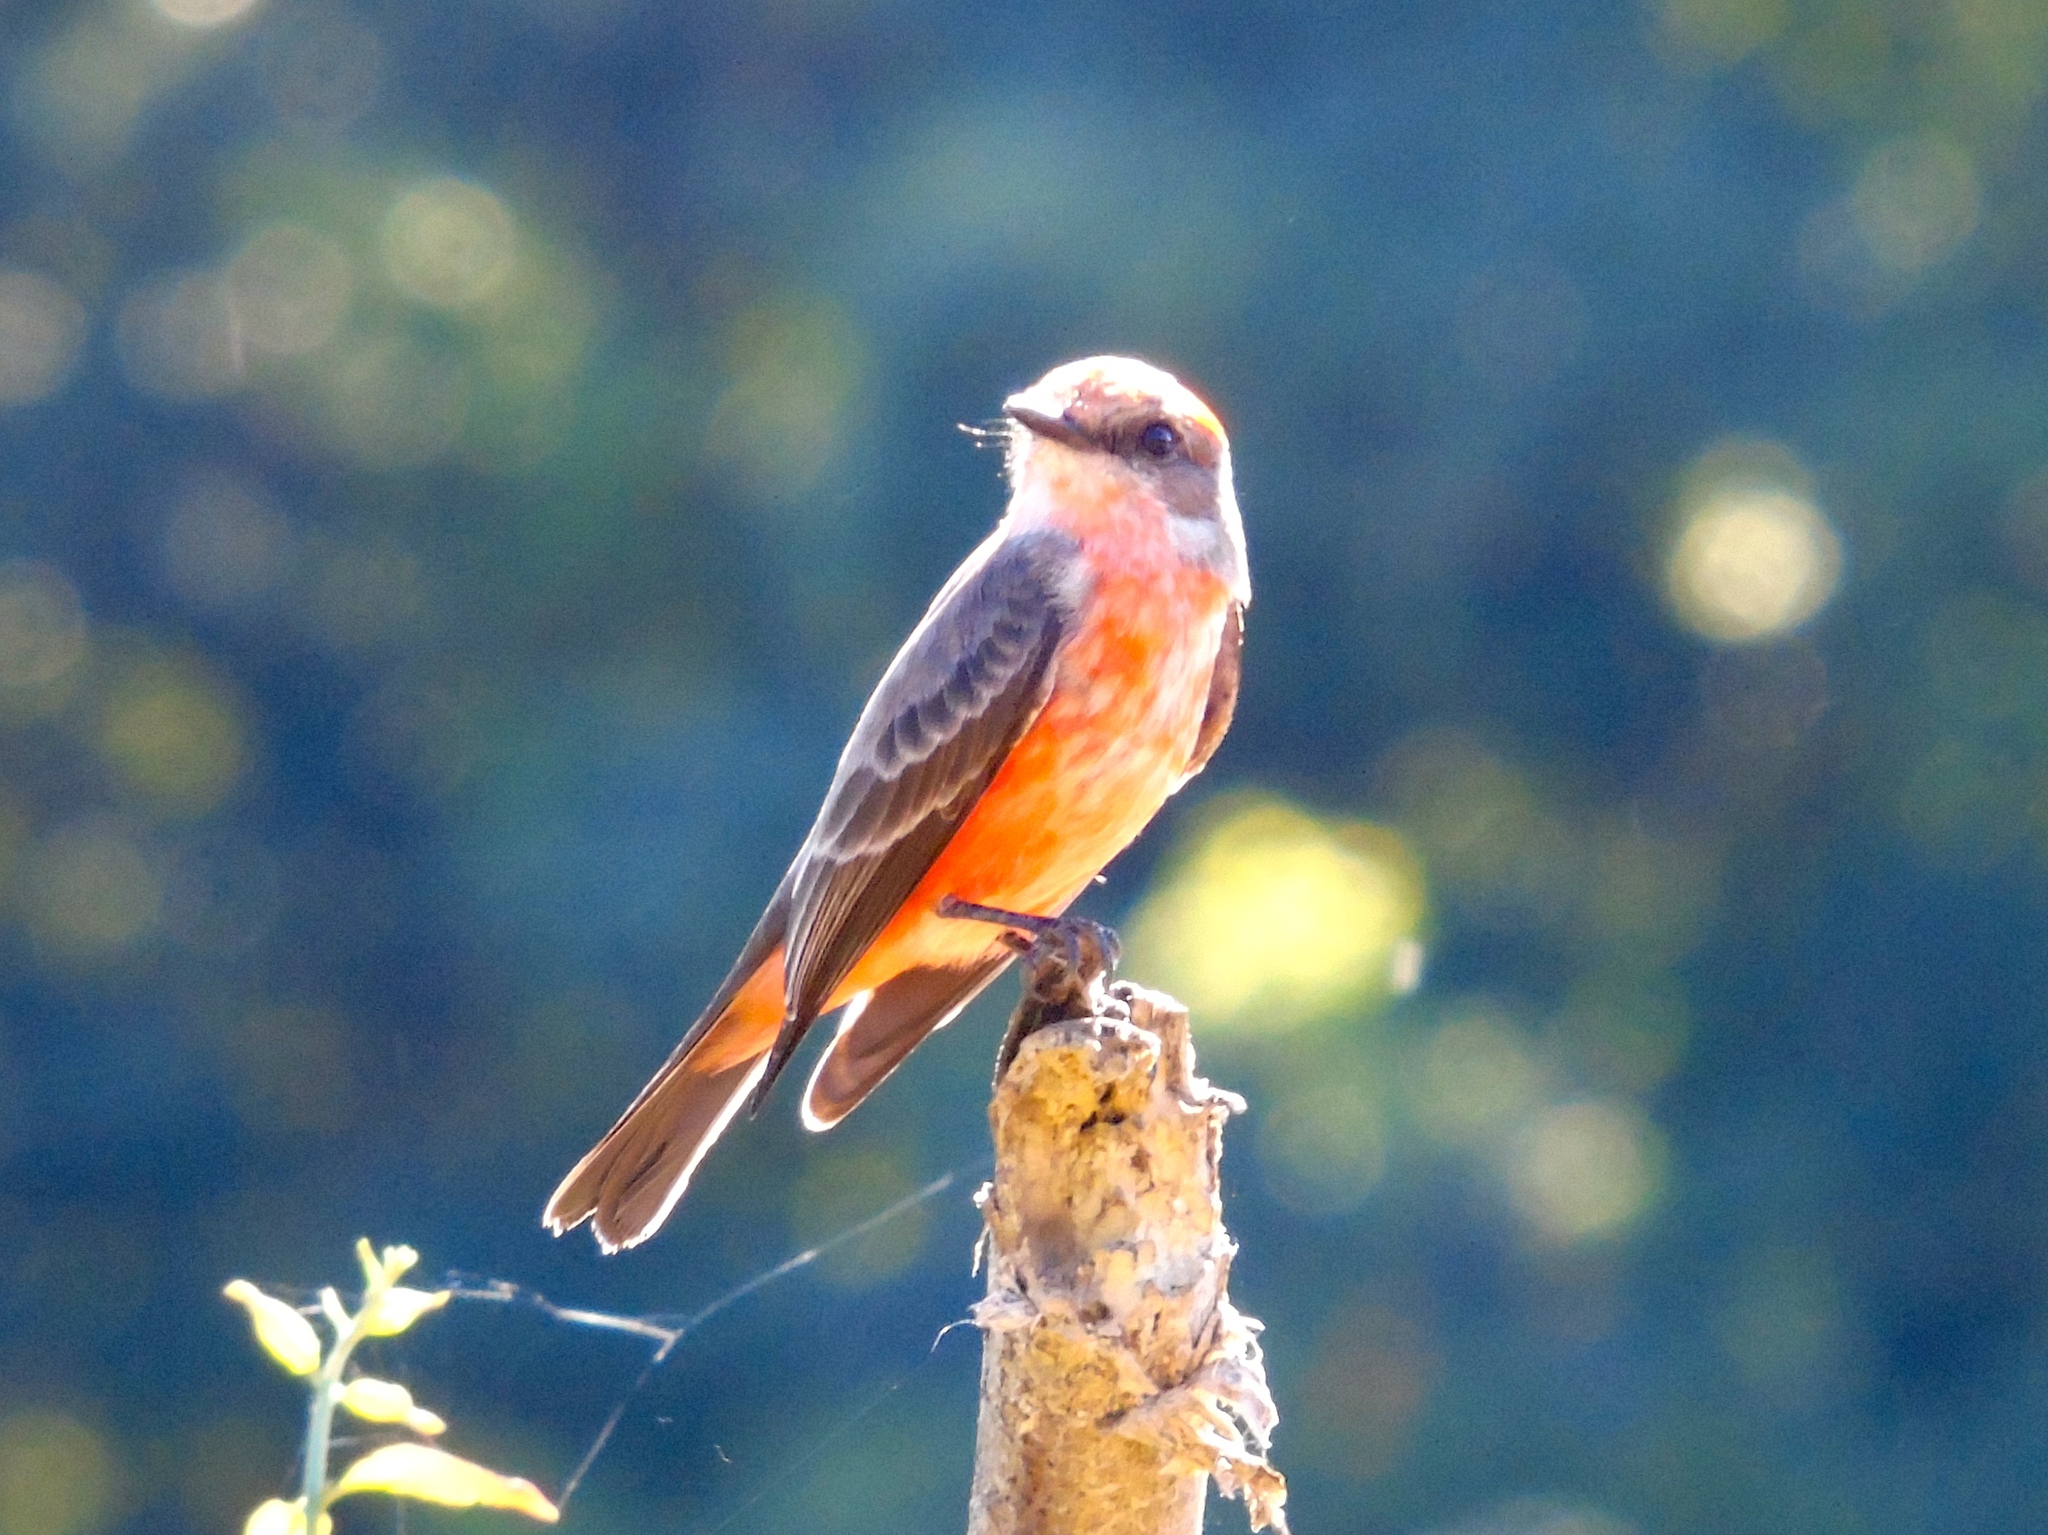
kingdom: Animalia
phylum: Chordata
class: Aves
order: Passeriformes
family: Tyrannidae
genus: Pyrocephalus
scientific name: Pyrocephalus rubinus
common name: Vermilion flycatcher
